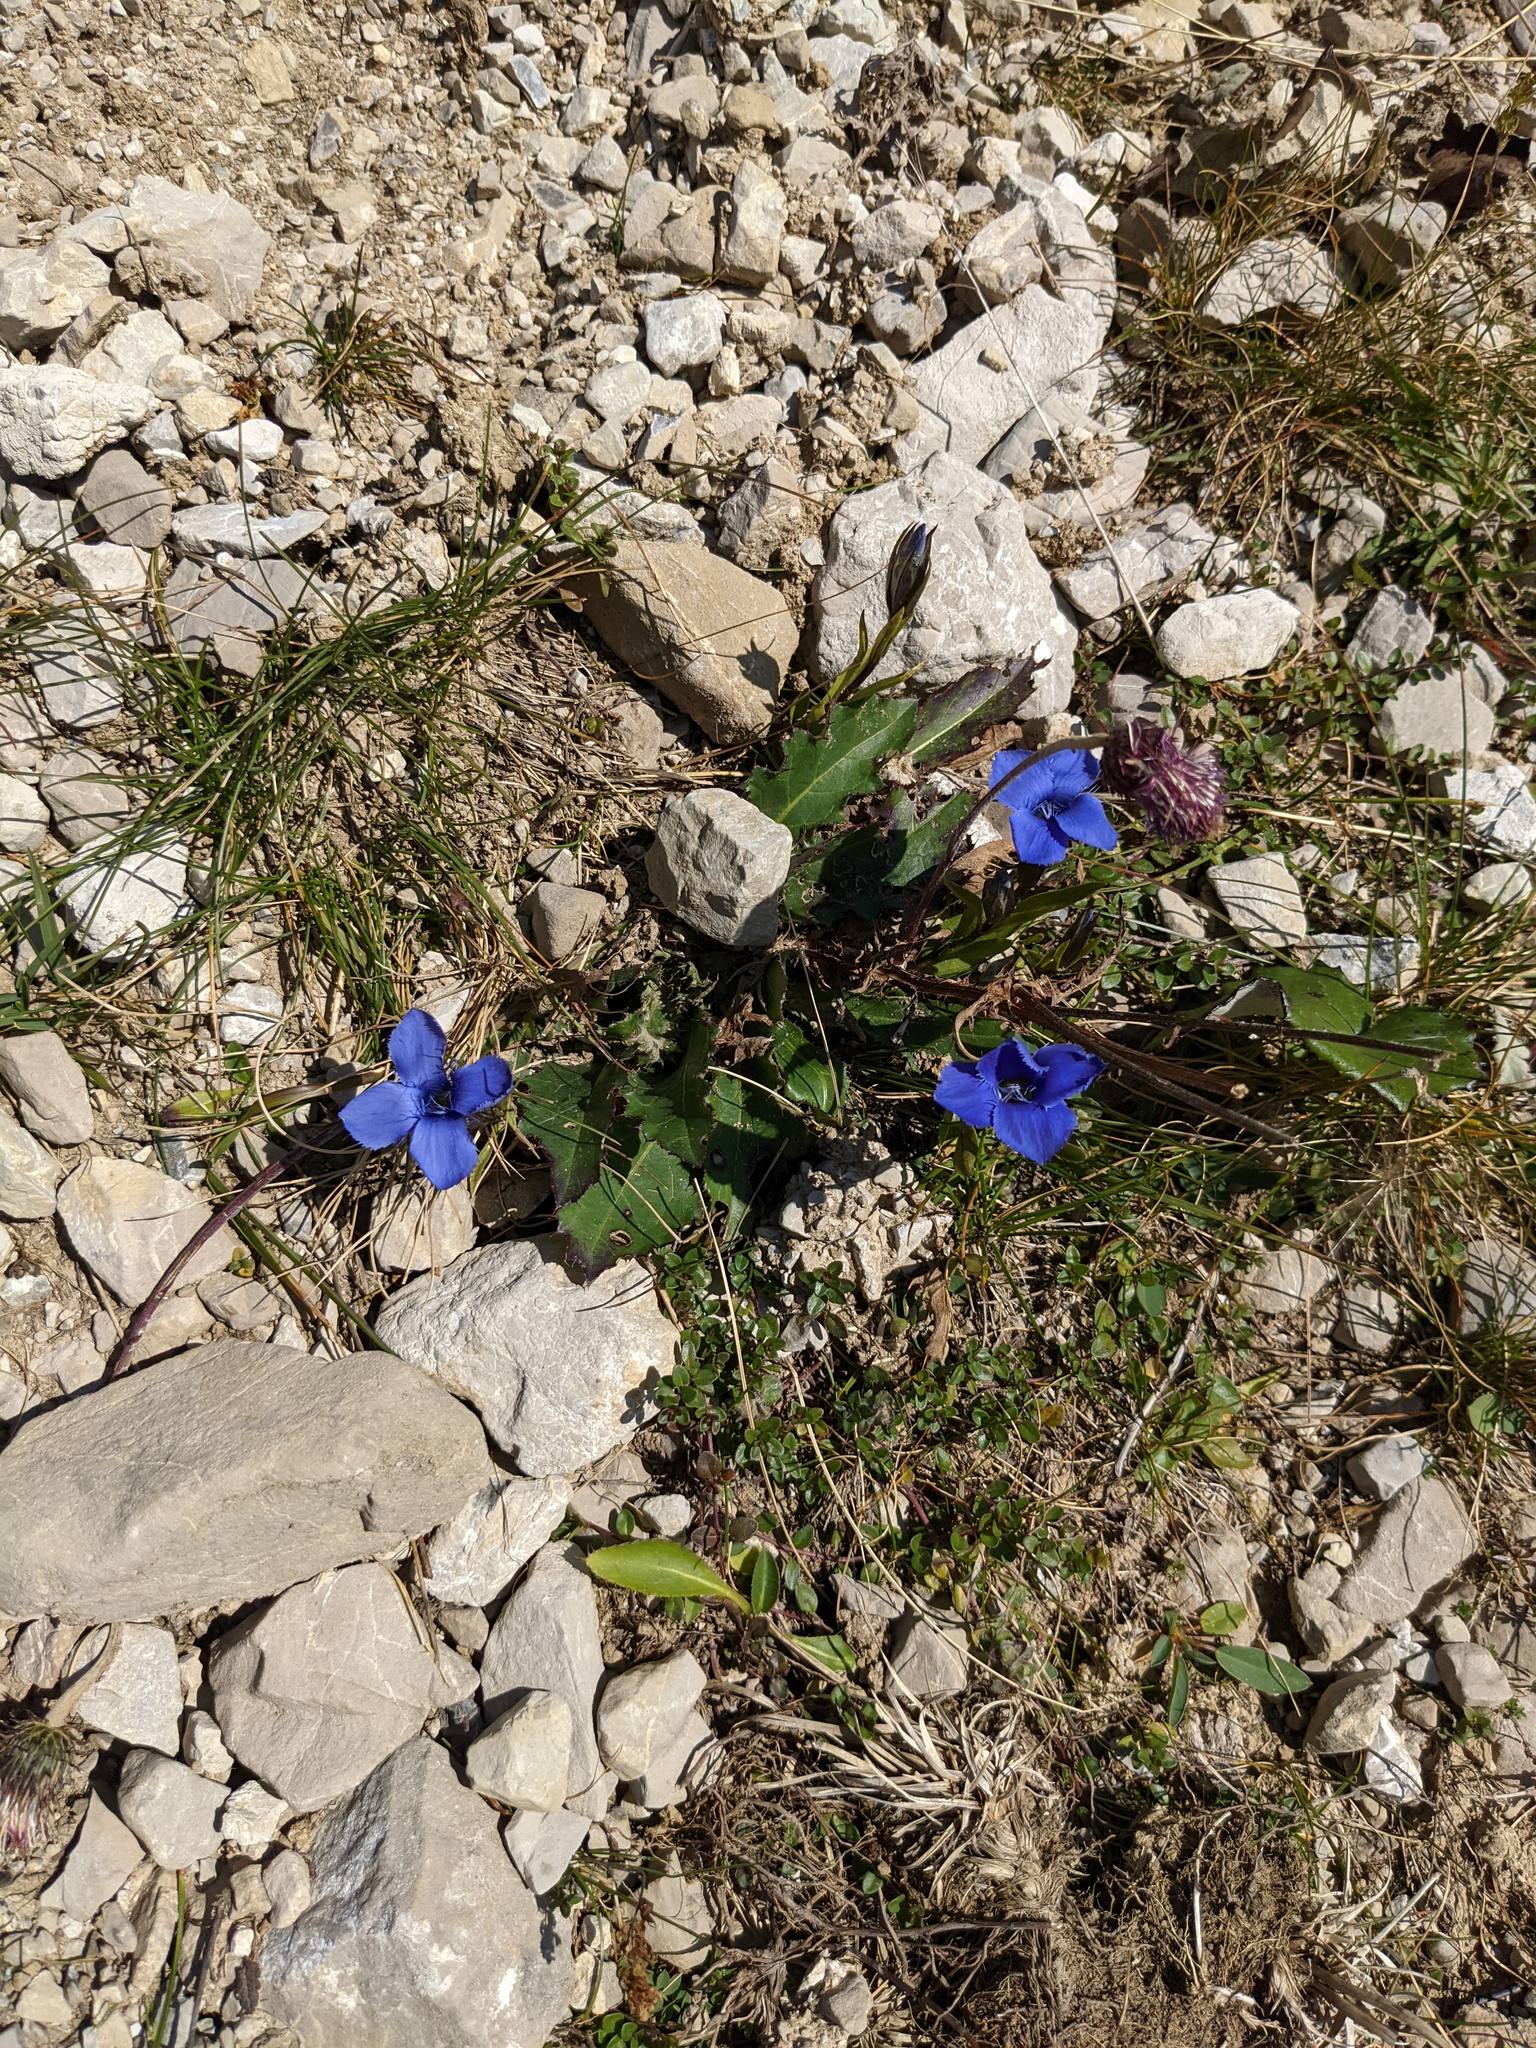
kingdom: Plantae
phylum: Tracheophyta
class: Magnoliopsida
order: Gentianales
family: Gentianaceae
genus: Gentianopsis
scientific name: Gentianopsis ciliata
